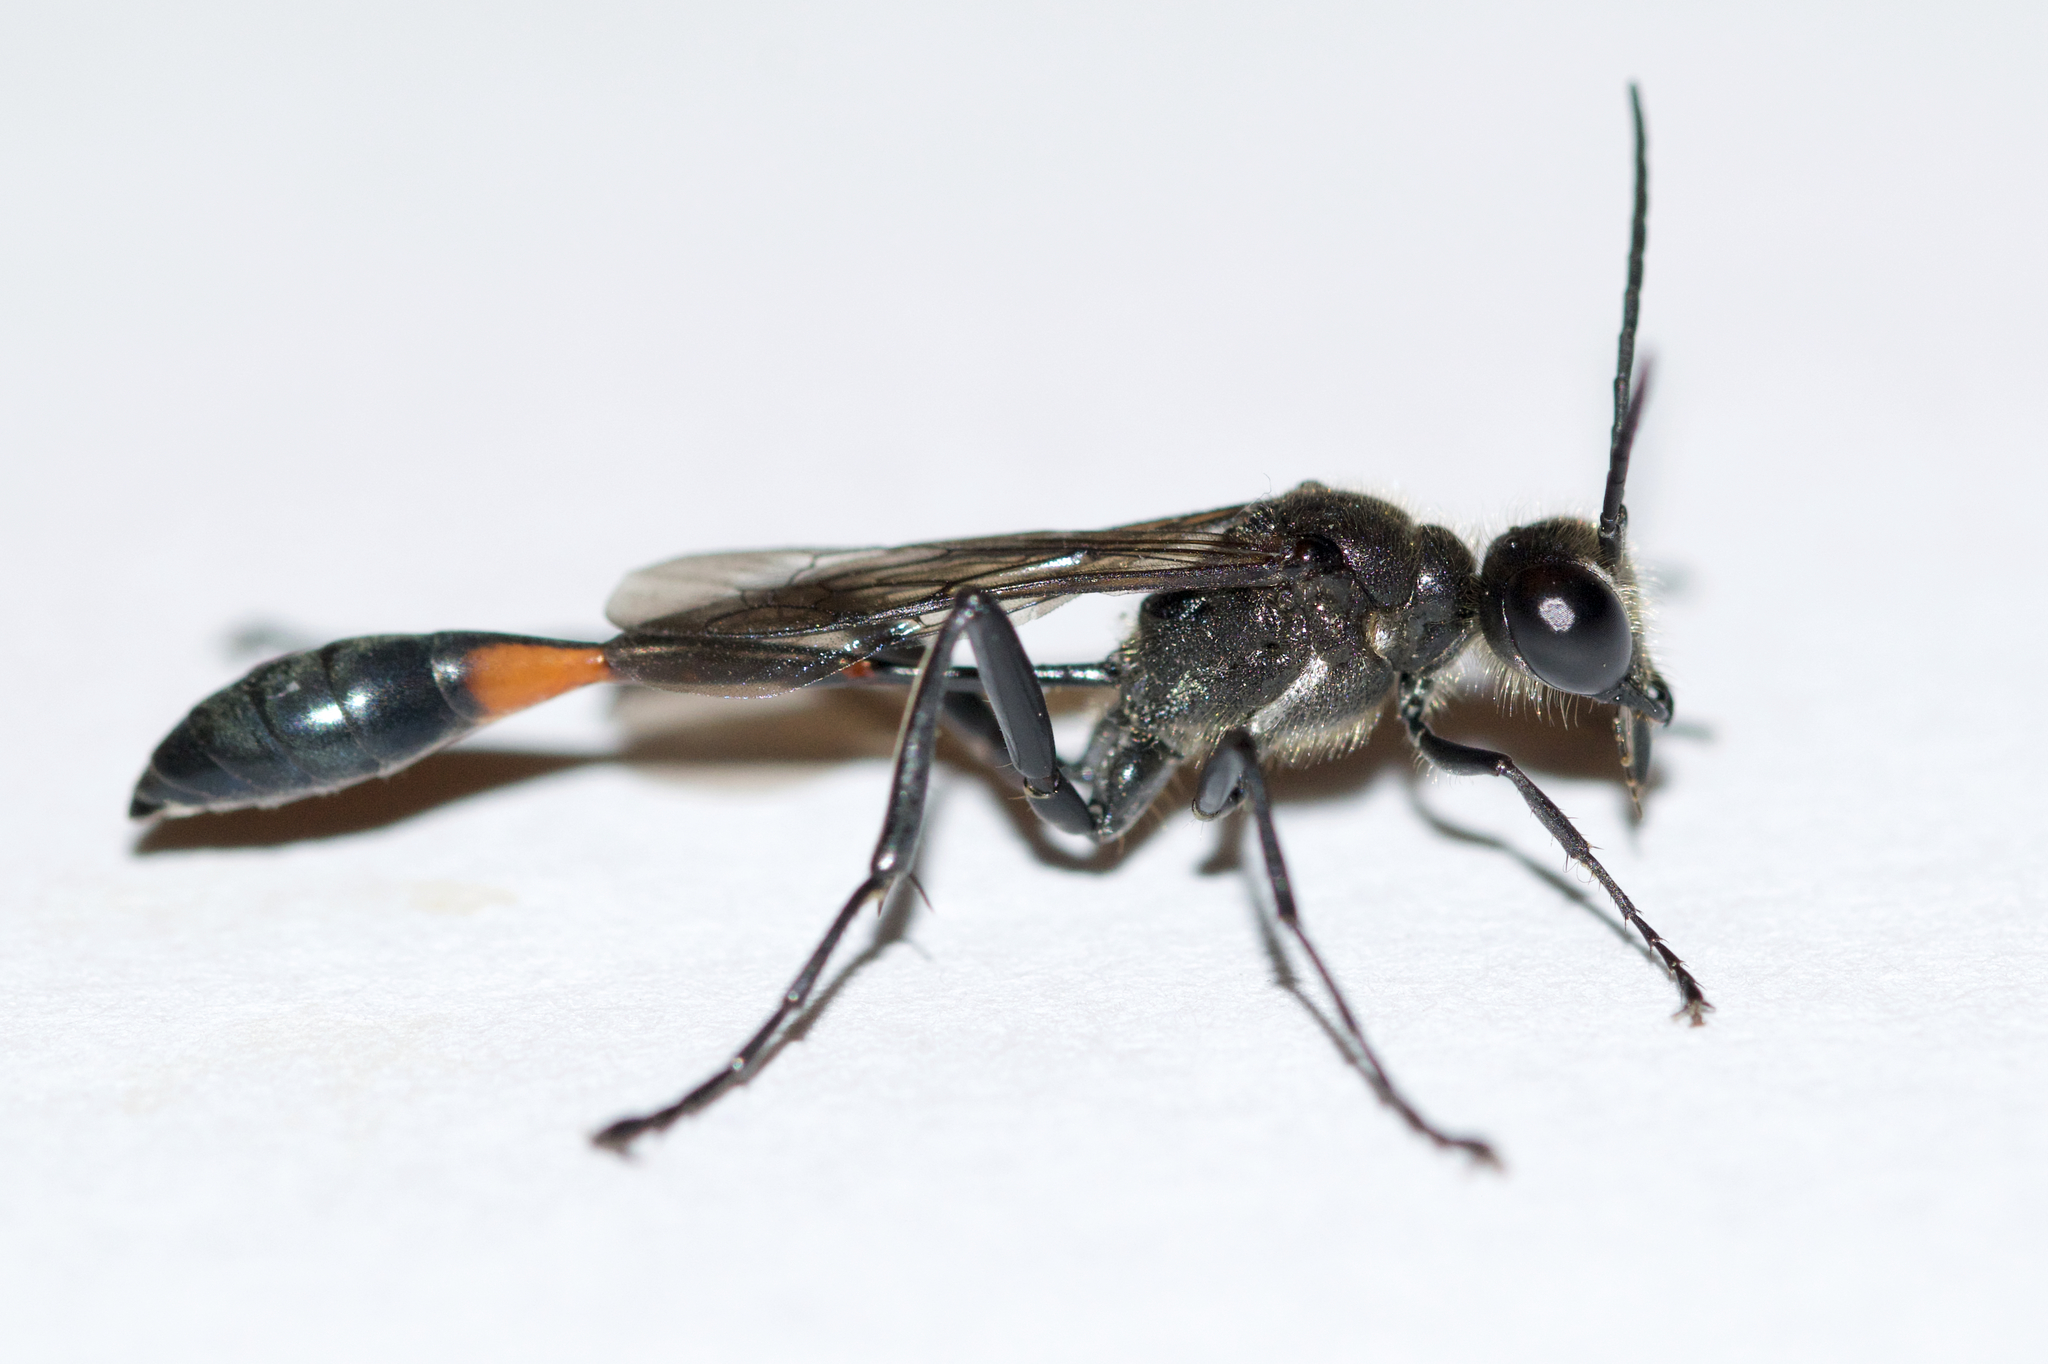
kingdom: Animalia
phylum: Arthropoda
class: Insecta
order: Hymenoptera
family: Sphecidae
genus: Ammophila
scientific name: Ammophila urnaria
